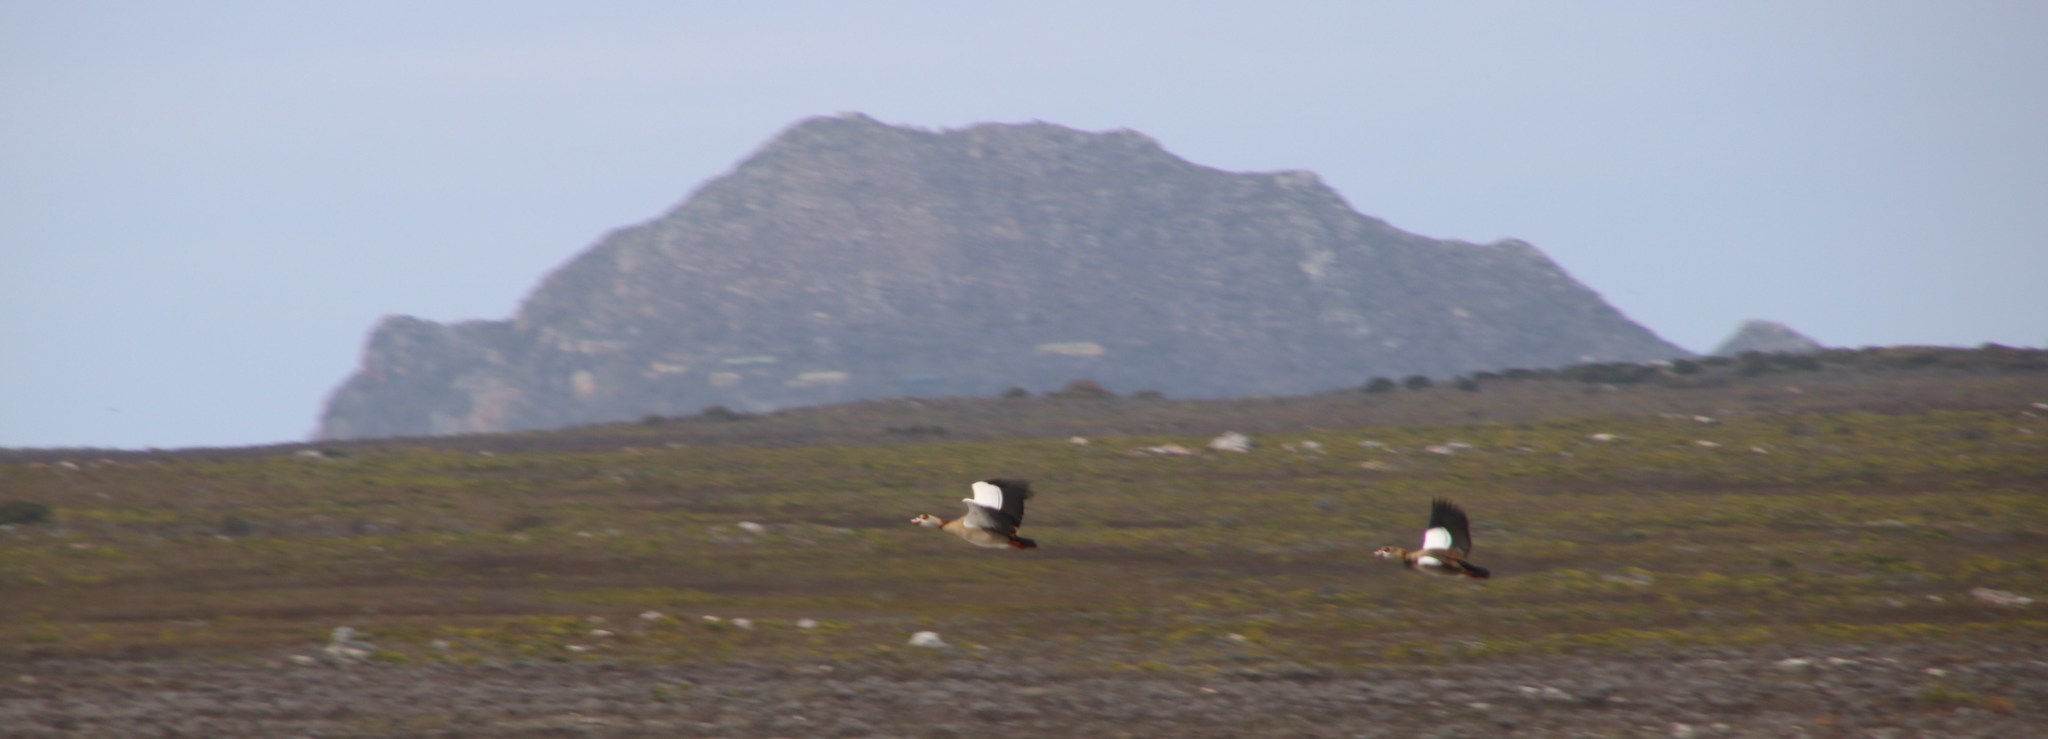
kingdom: Animalia
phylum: Chordata
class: Aves
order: Anseriformes
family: Anatidae
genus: Alopochen
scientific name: Alopochen aegyptiaca
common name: Egyptian goose
